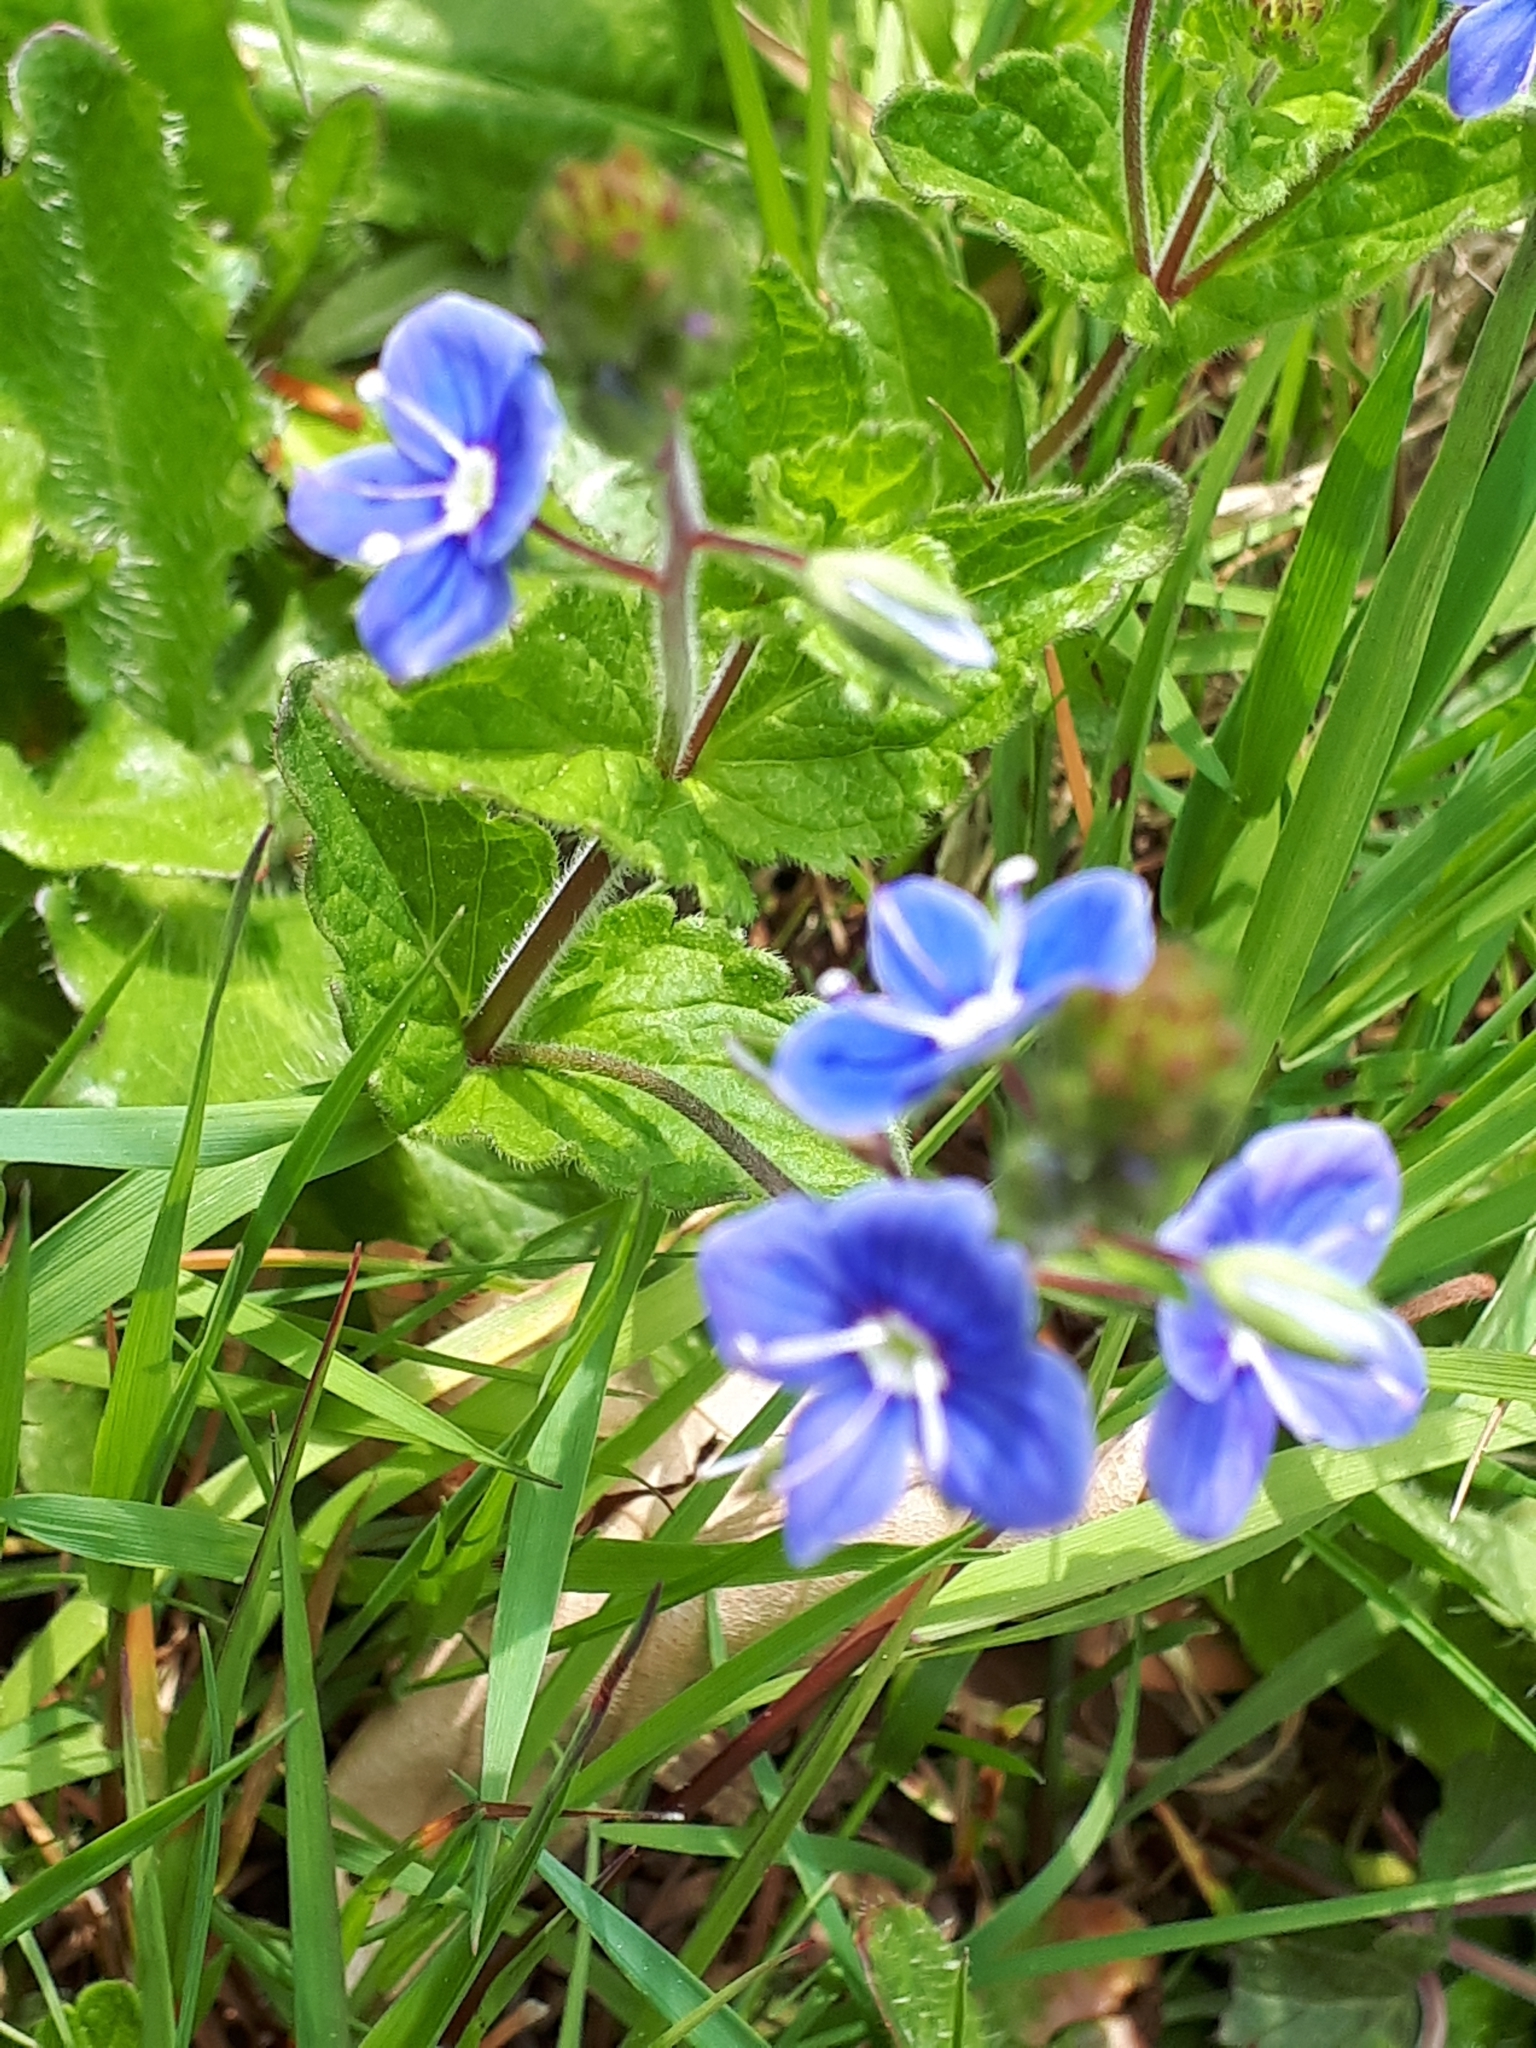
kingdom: Plantae
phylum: Tracheophyta
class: Magnoliopsida
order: Lamiales
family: Plantaginaceae
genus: Veronica
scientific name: Veronica chamaedrys
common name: Germander speedwell
